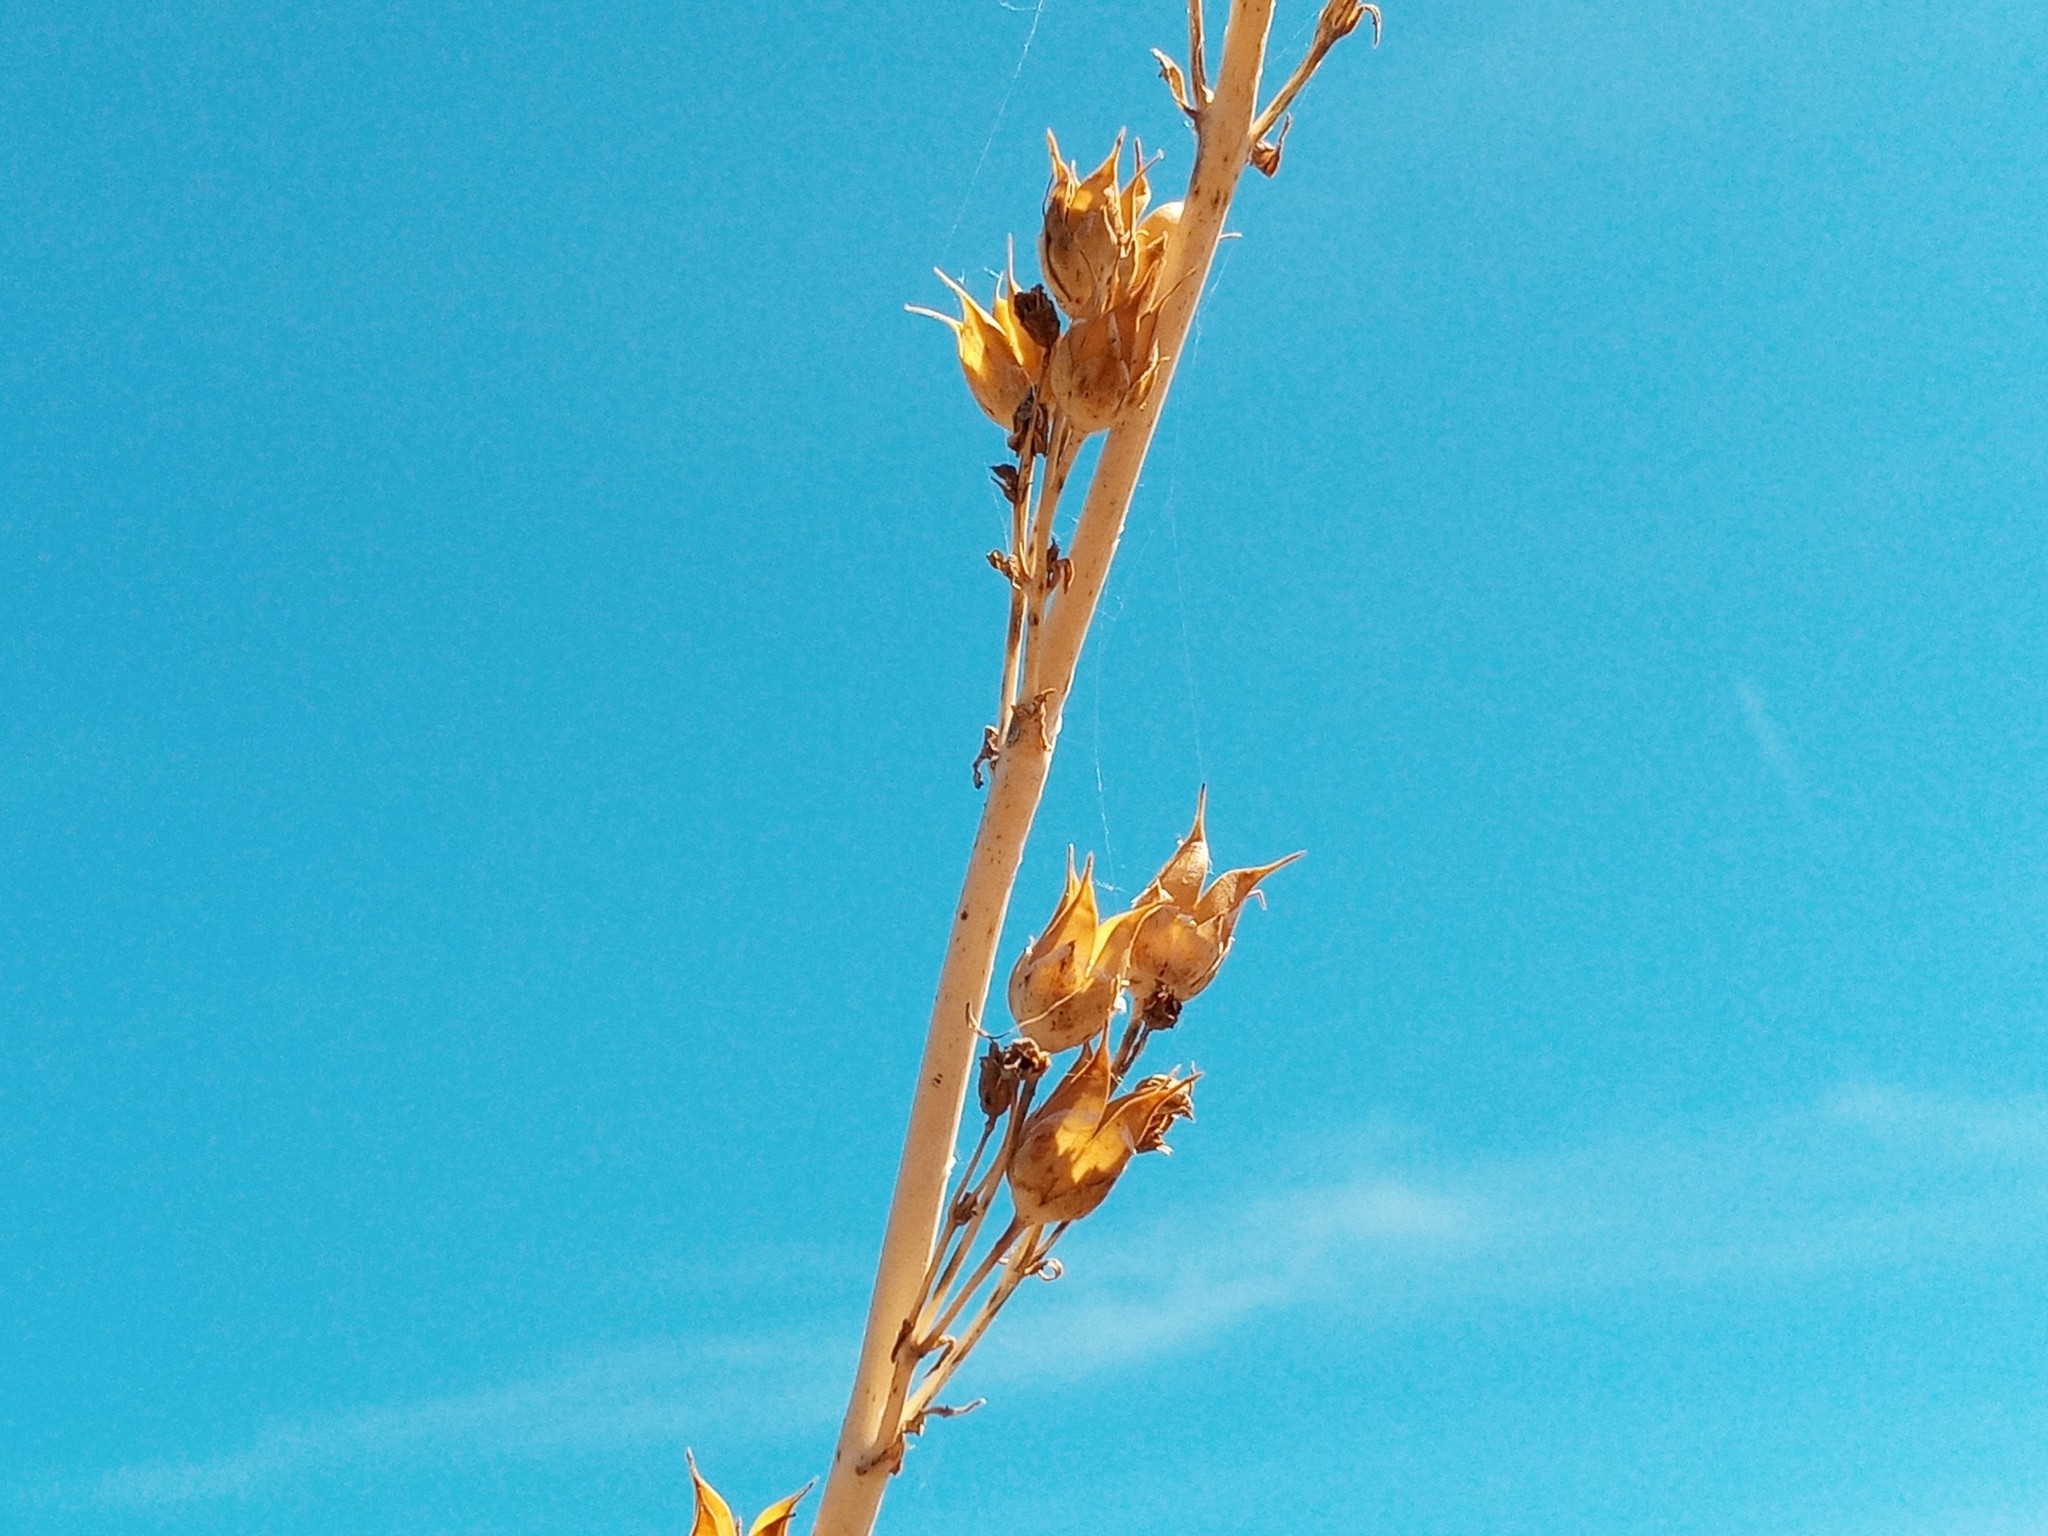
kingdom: Plantae
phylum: Tracheophyta
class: Magnoliopsida
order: Lamiales
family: Plantaginaceae
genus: Penstemon
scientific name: Penstemon centranthifolius
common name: Scarlet bugler
